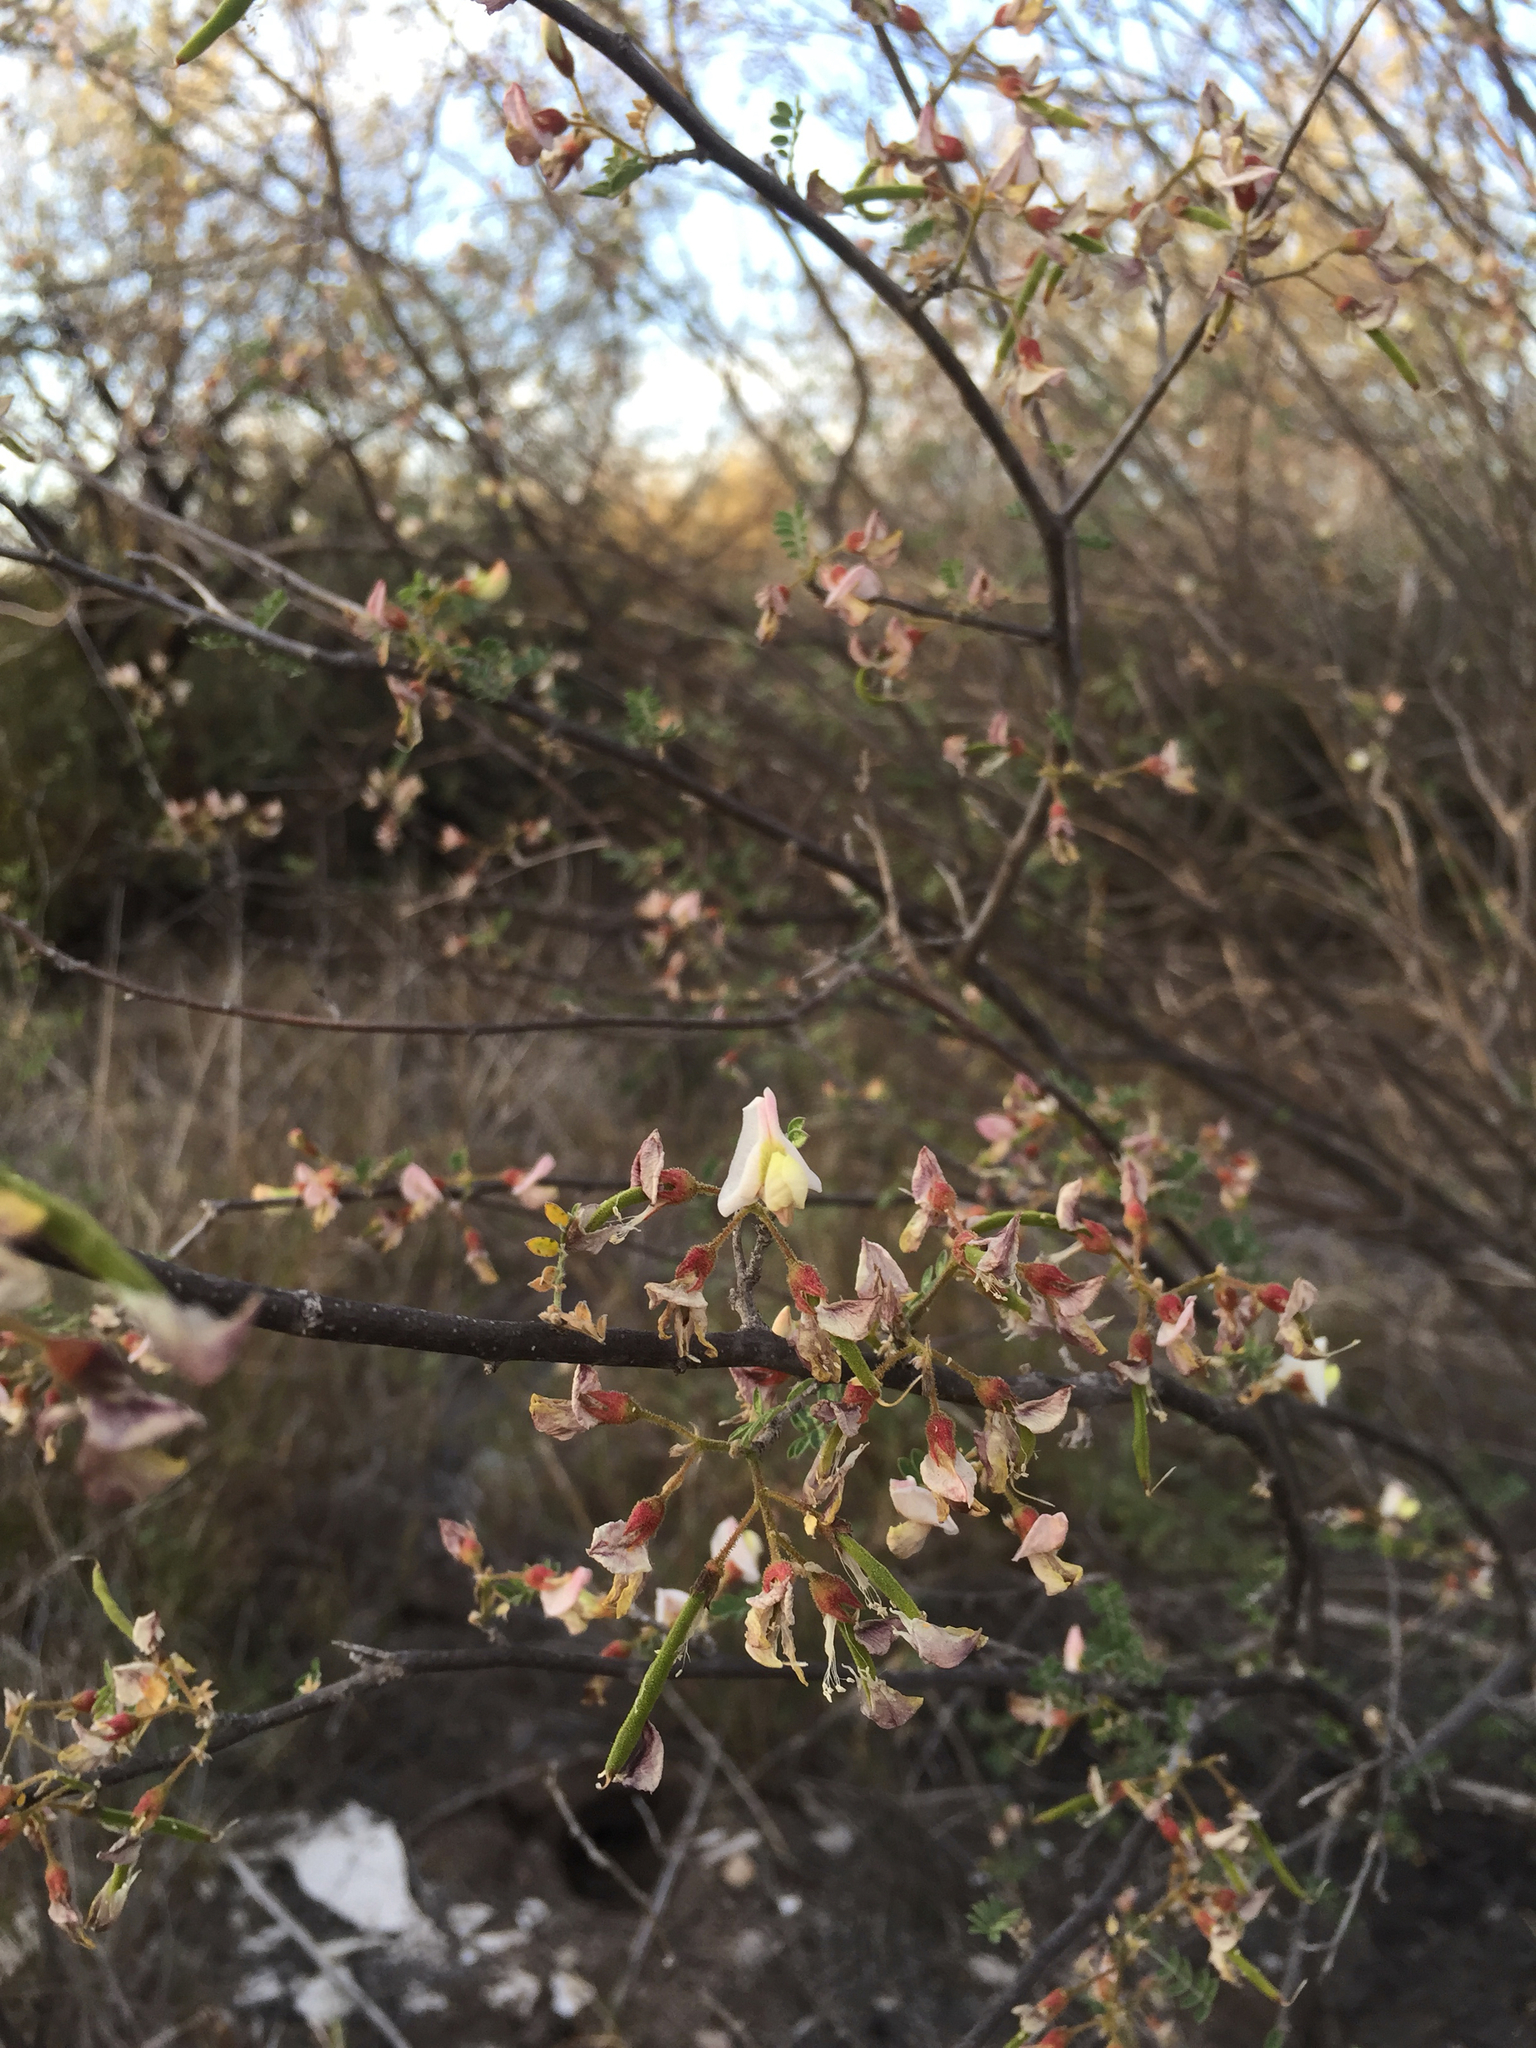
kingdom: Plantae
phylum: Tracheophyta
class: Magnoliopsida
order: Fabales
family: Fabaceae
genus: Coursetia
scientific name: Coursetia glandulosa
